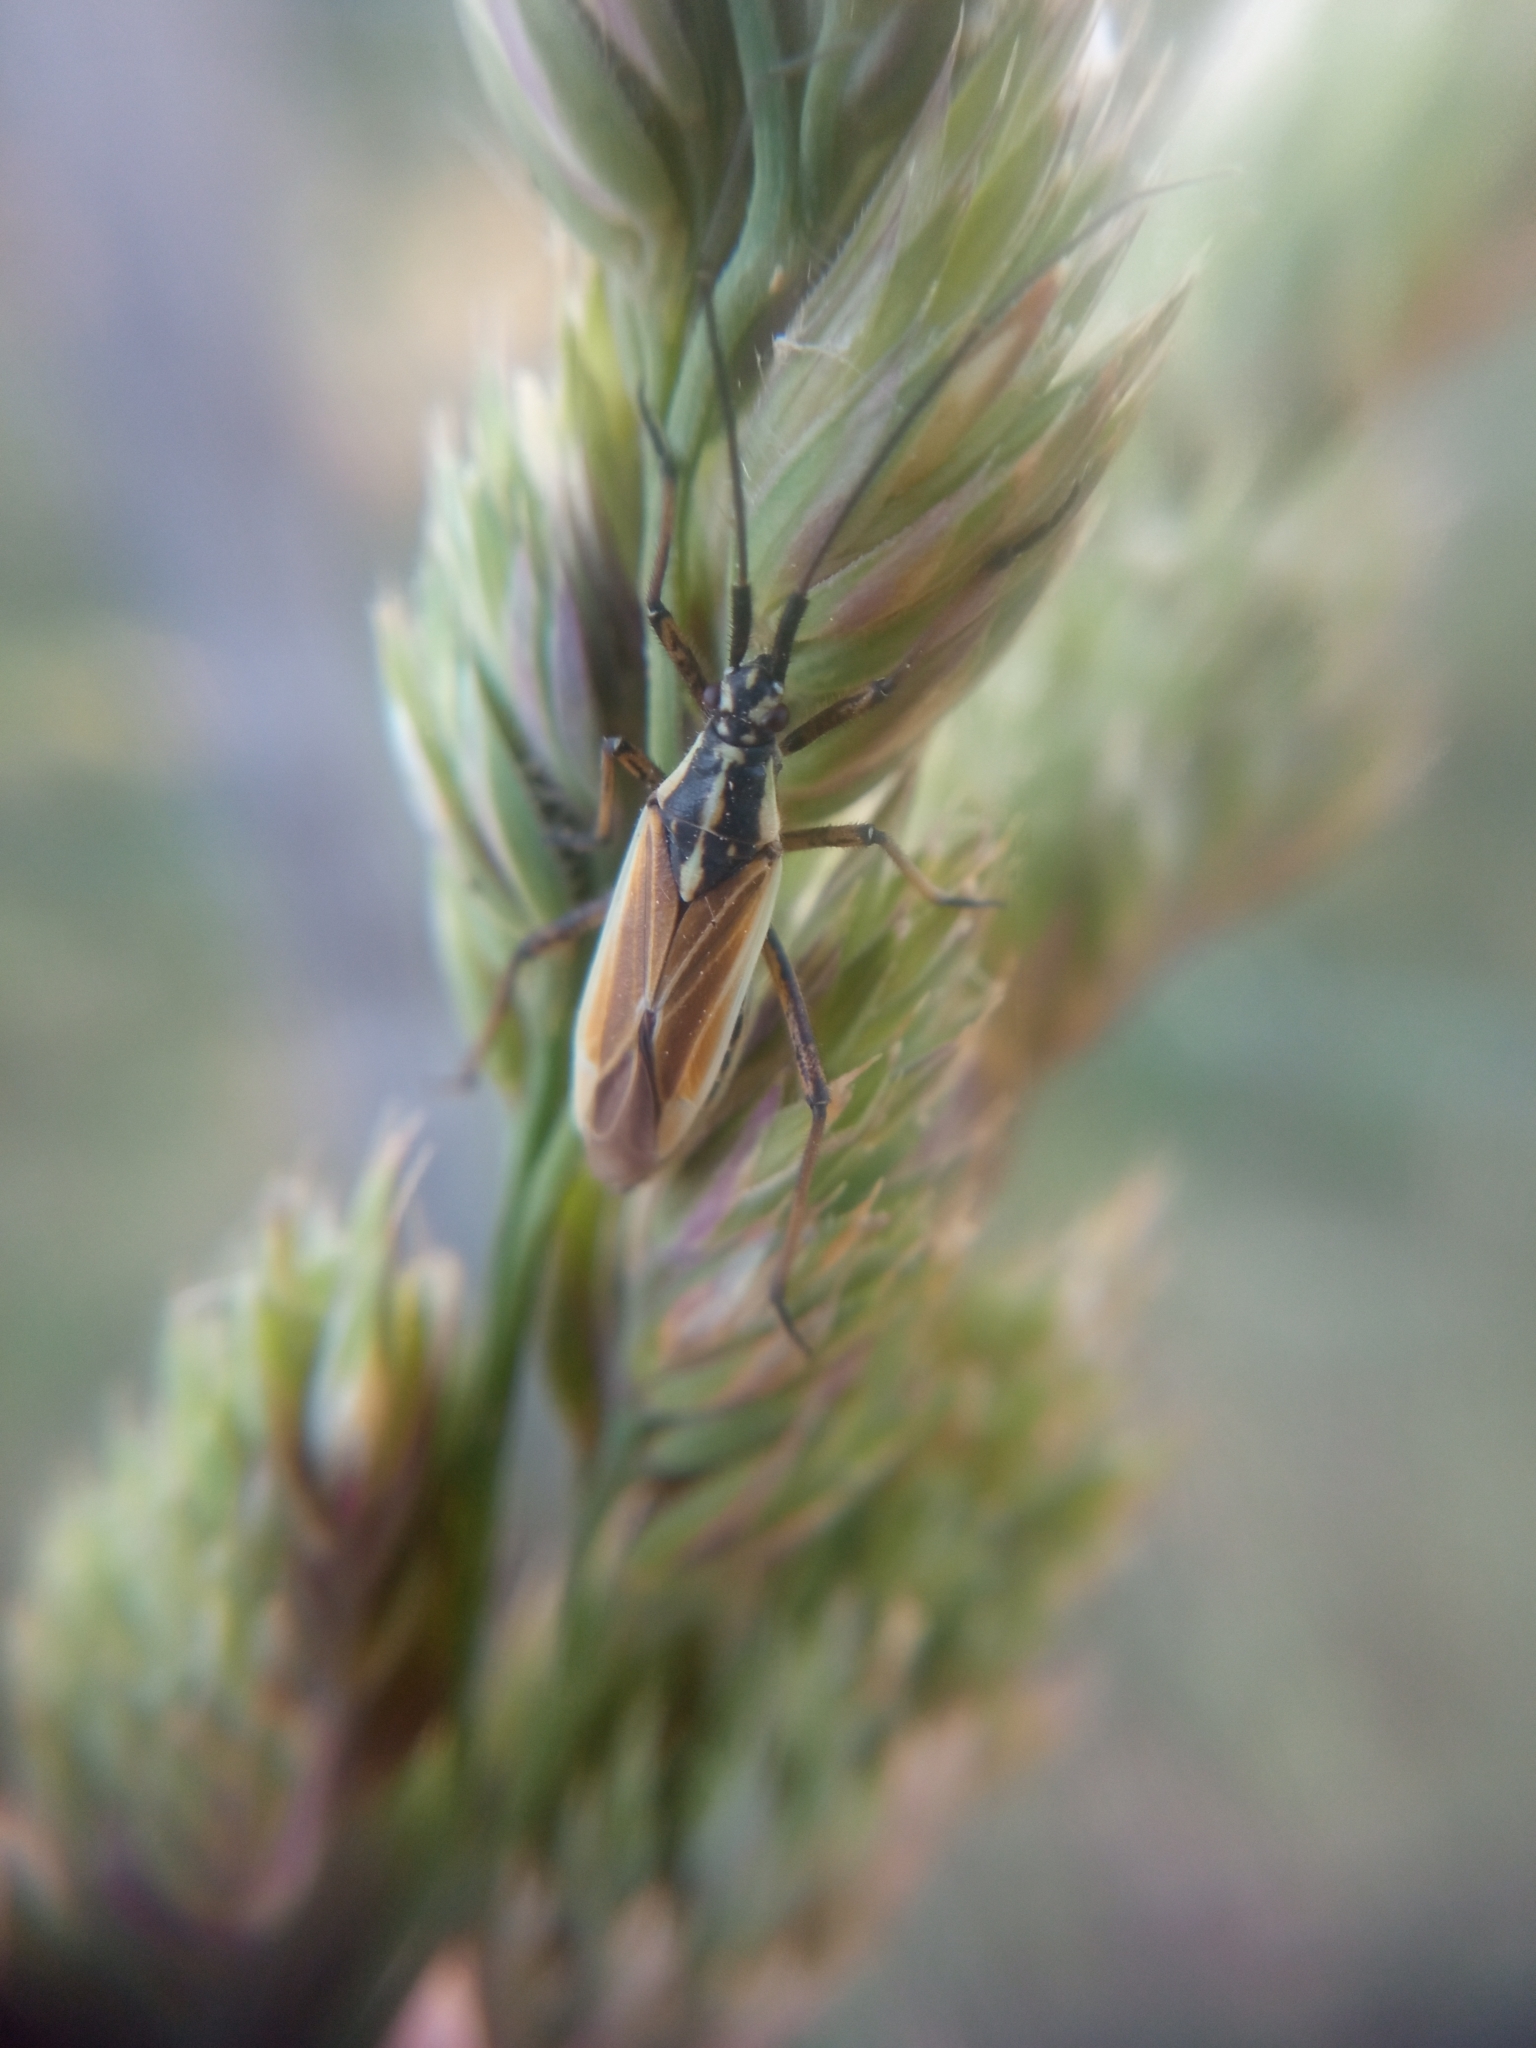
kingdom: Animalia
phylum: Arthropoda
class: Insecta
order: Hemiptera
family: Miridae
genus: Leptopterna
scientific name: Leptopterna dolabrata
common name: Meadow plant bug
